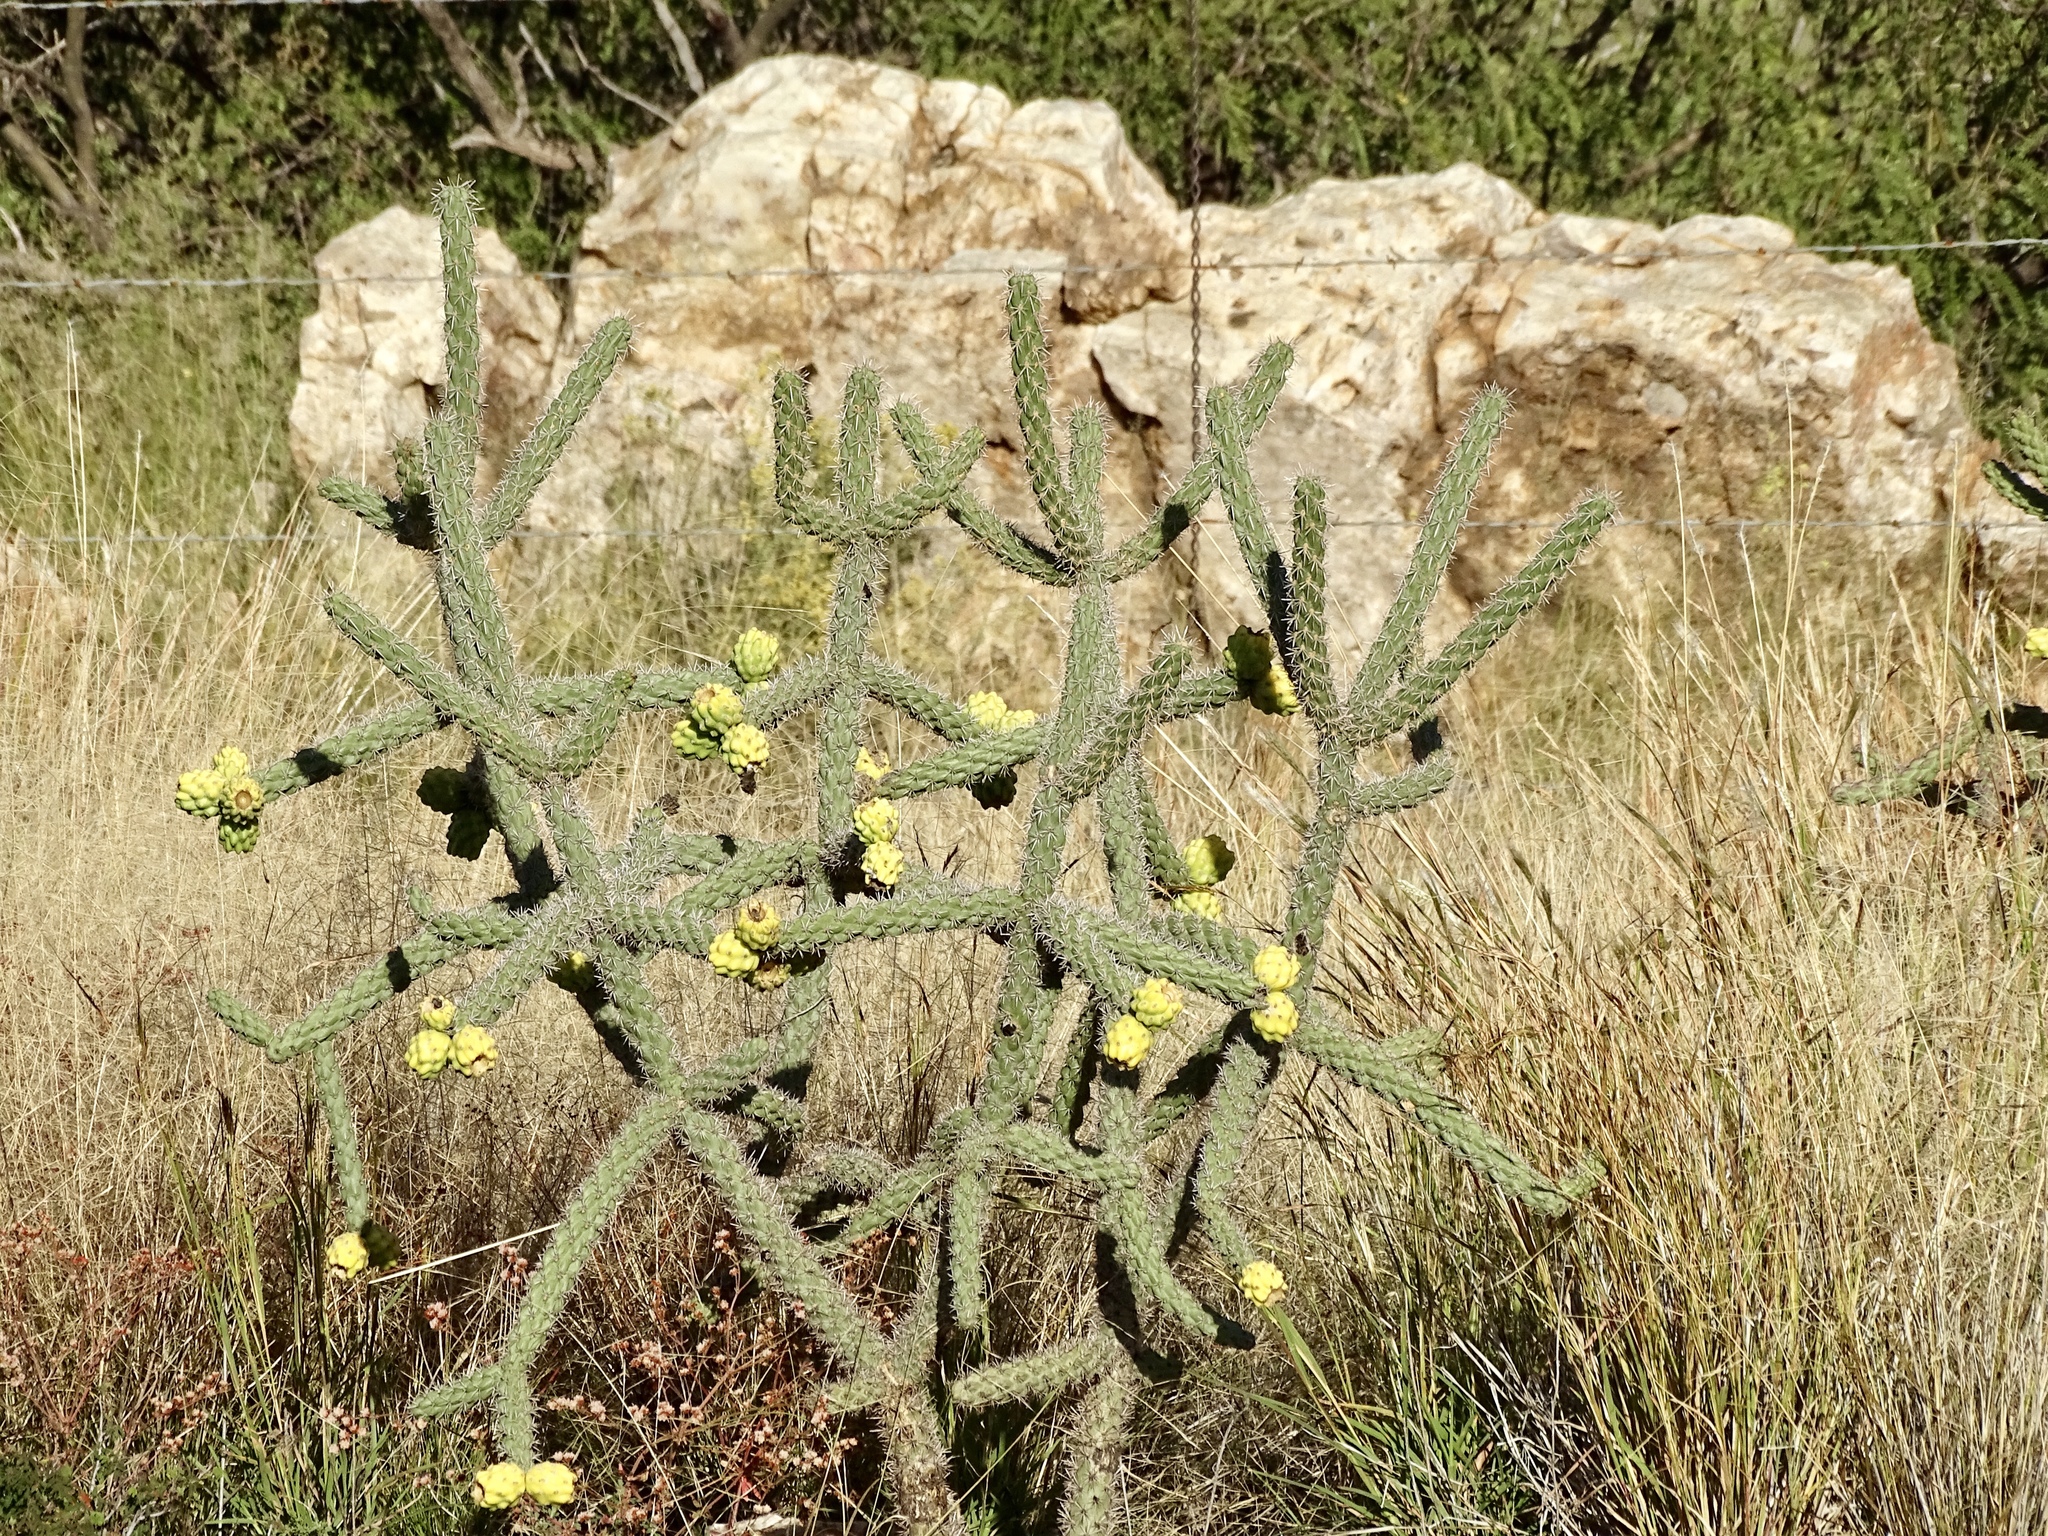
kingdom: Plantae
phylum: Tracheophyta
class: Magnoliopsida
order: Caryophyllales
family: Cactaceae
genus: Cylindropuntia
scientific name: Cylindropuntia imbricata
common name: Candelabrum cactus
